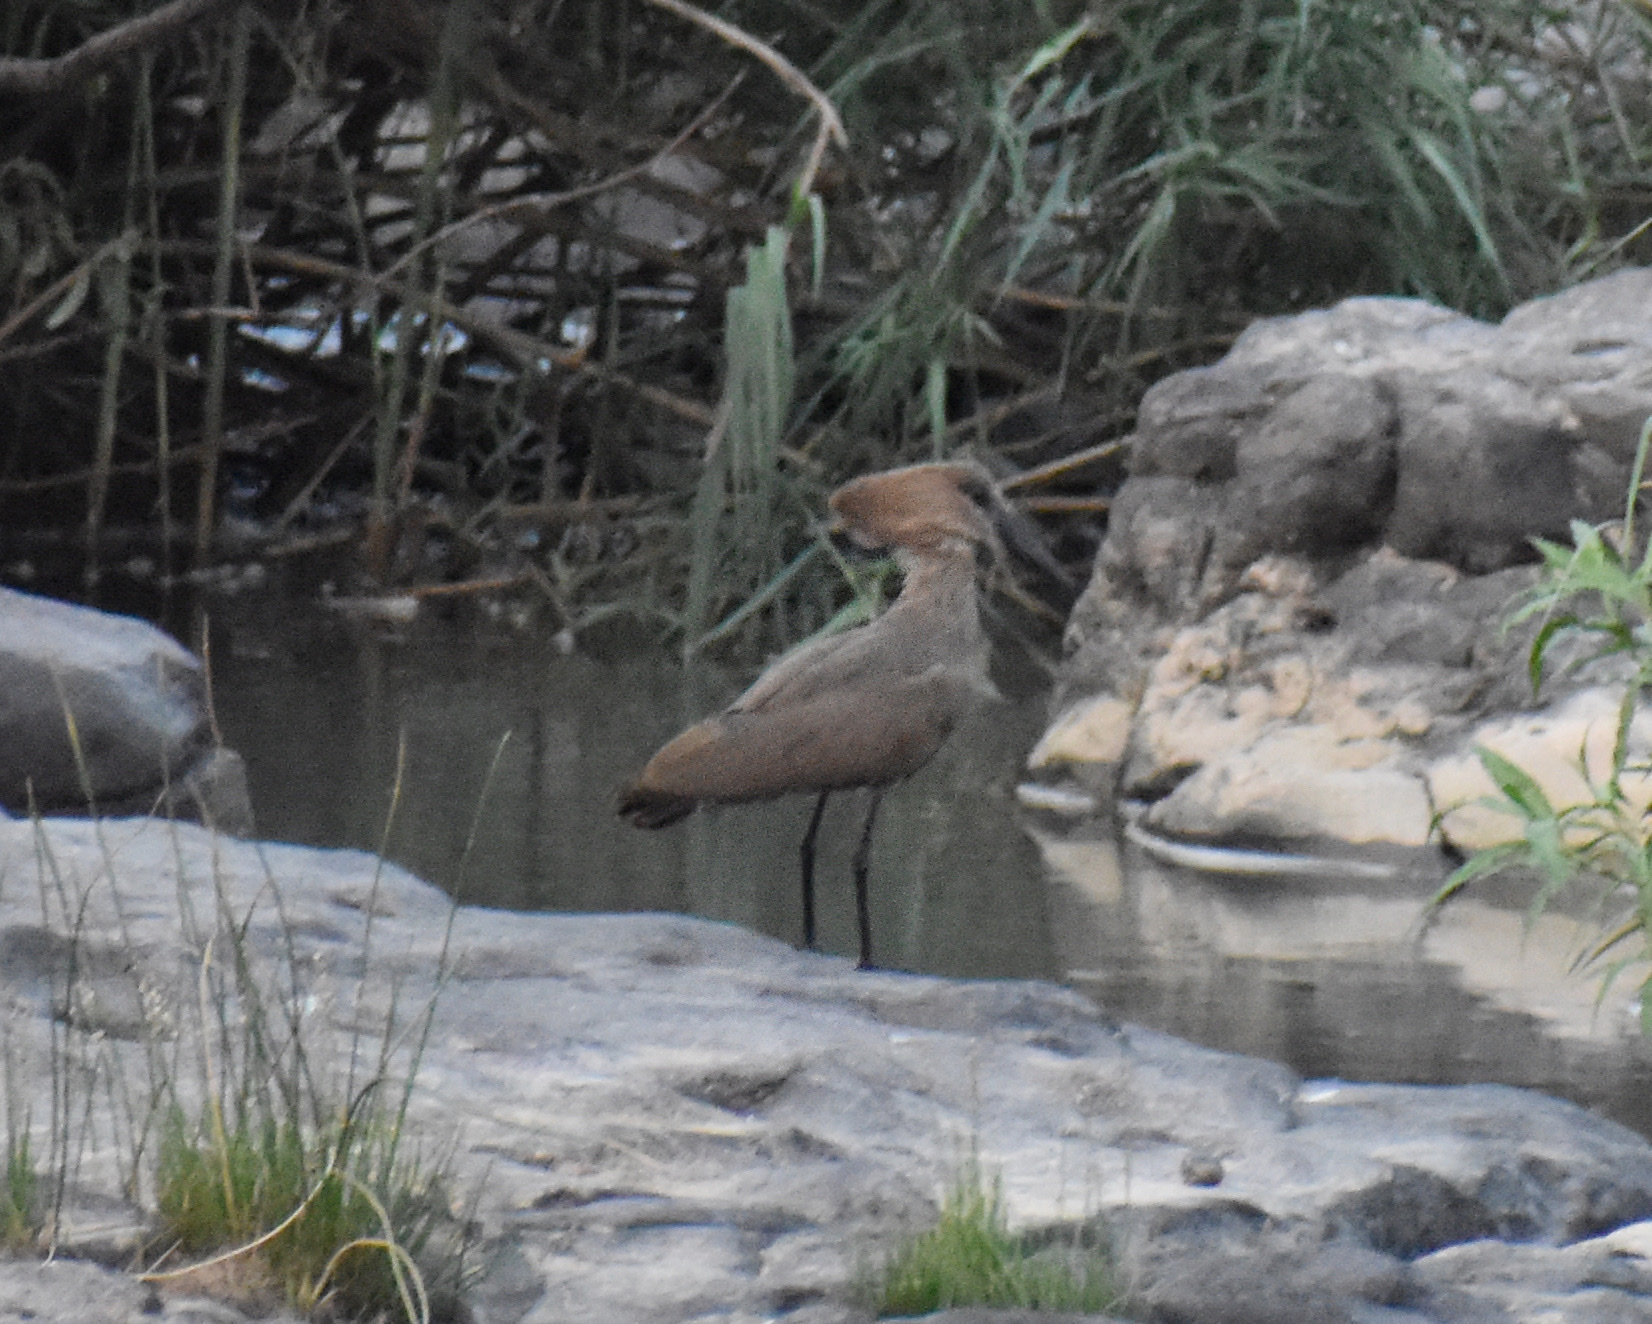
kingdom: Animalia
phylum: Chordata
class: Aves
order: Pelecaniformes
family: Scopidae
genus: Scopus
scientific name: Scopus umbretta
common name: Hamerkop
